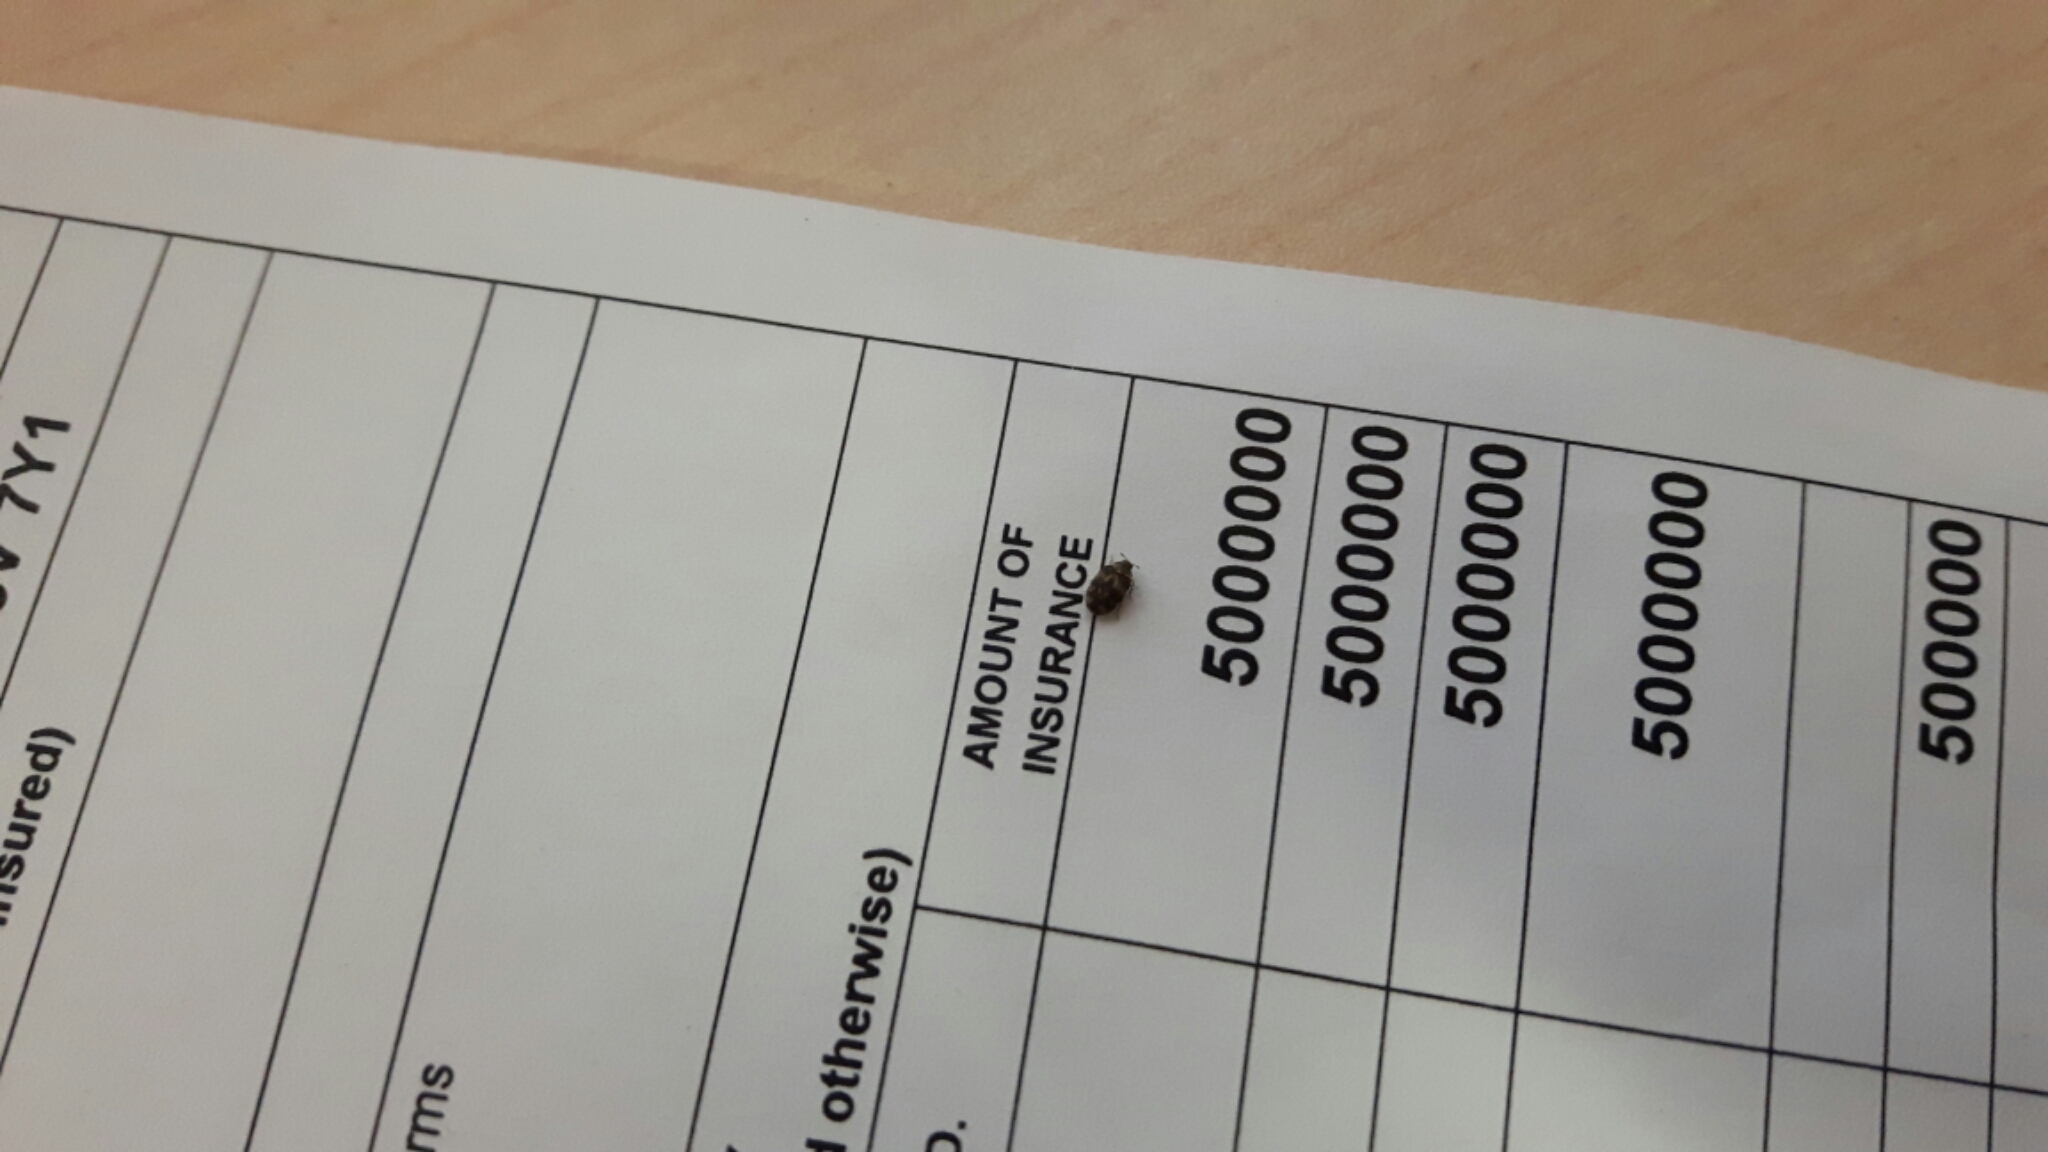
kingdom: Animalia
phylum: Arthropoda
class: Insecta
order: Coleoptera
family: Dermestidae
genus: Anthrenus
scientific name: Anthrenus fuscus
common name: Mill carpet beetle
